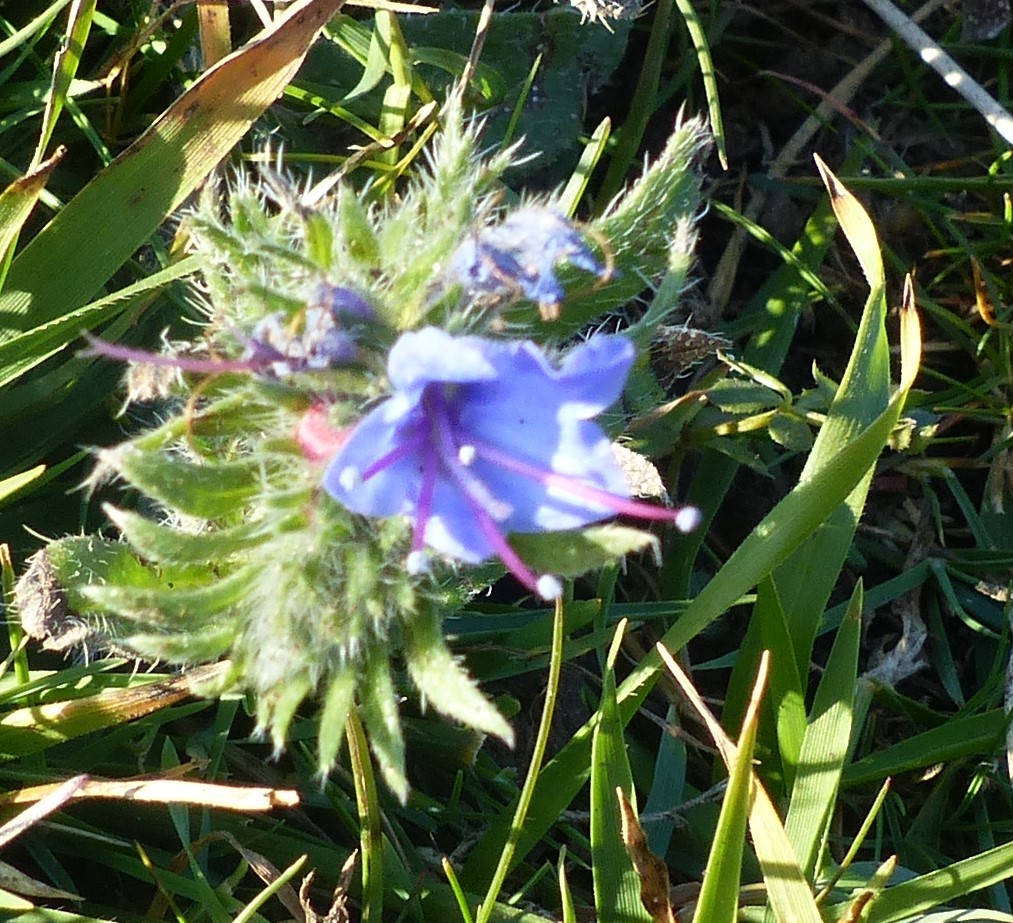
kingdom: Plantae
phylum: Tracheophyta
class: Magnoliopsida
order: Boraginales
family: Boraginaceae
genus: Echium
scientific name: Echium vulgare
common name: Common viper's bugloss
